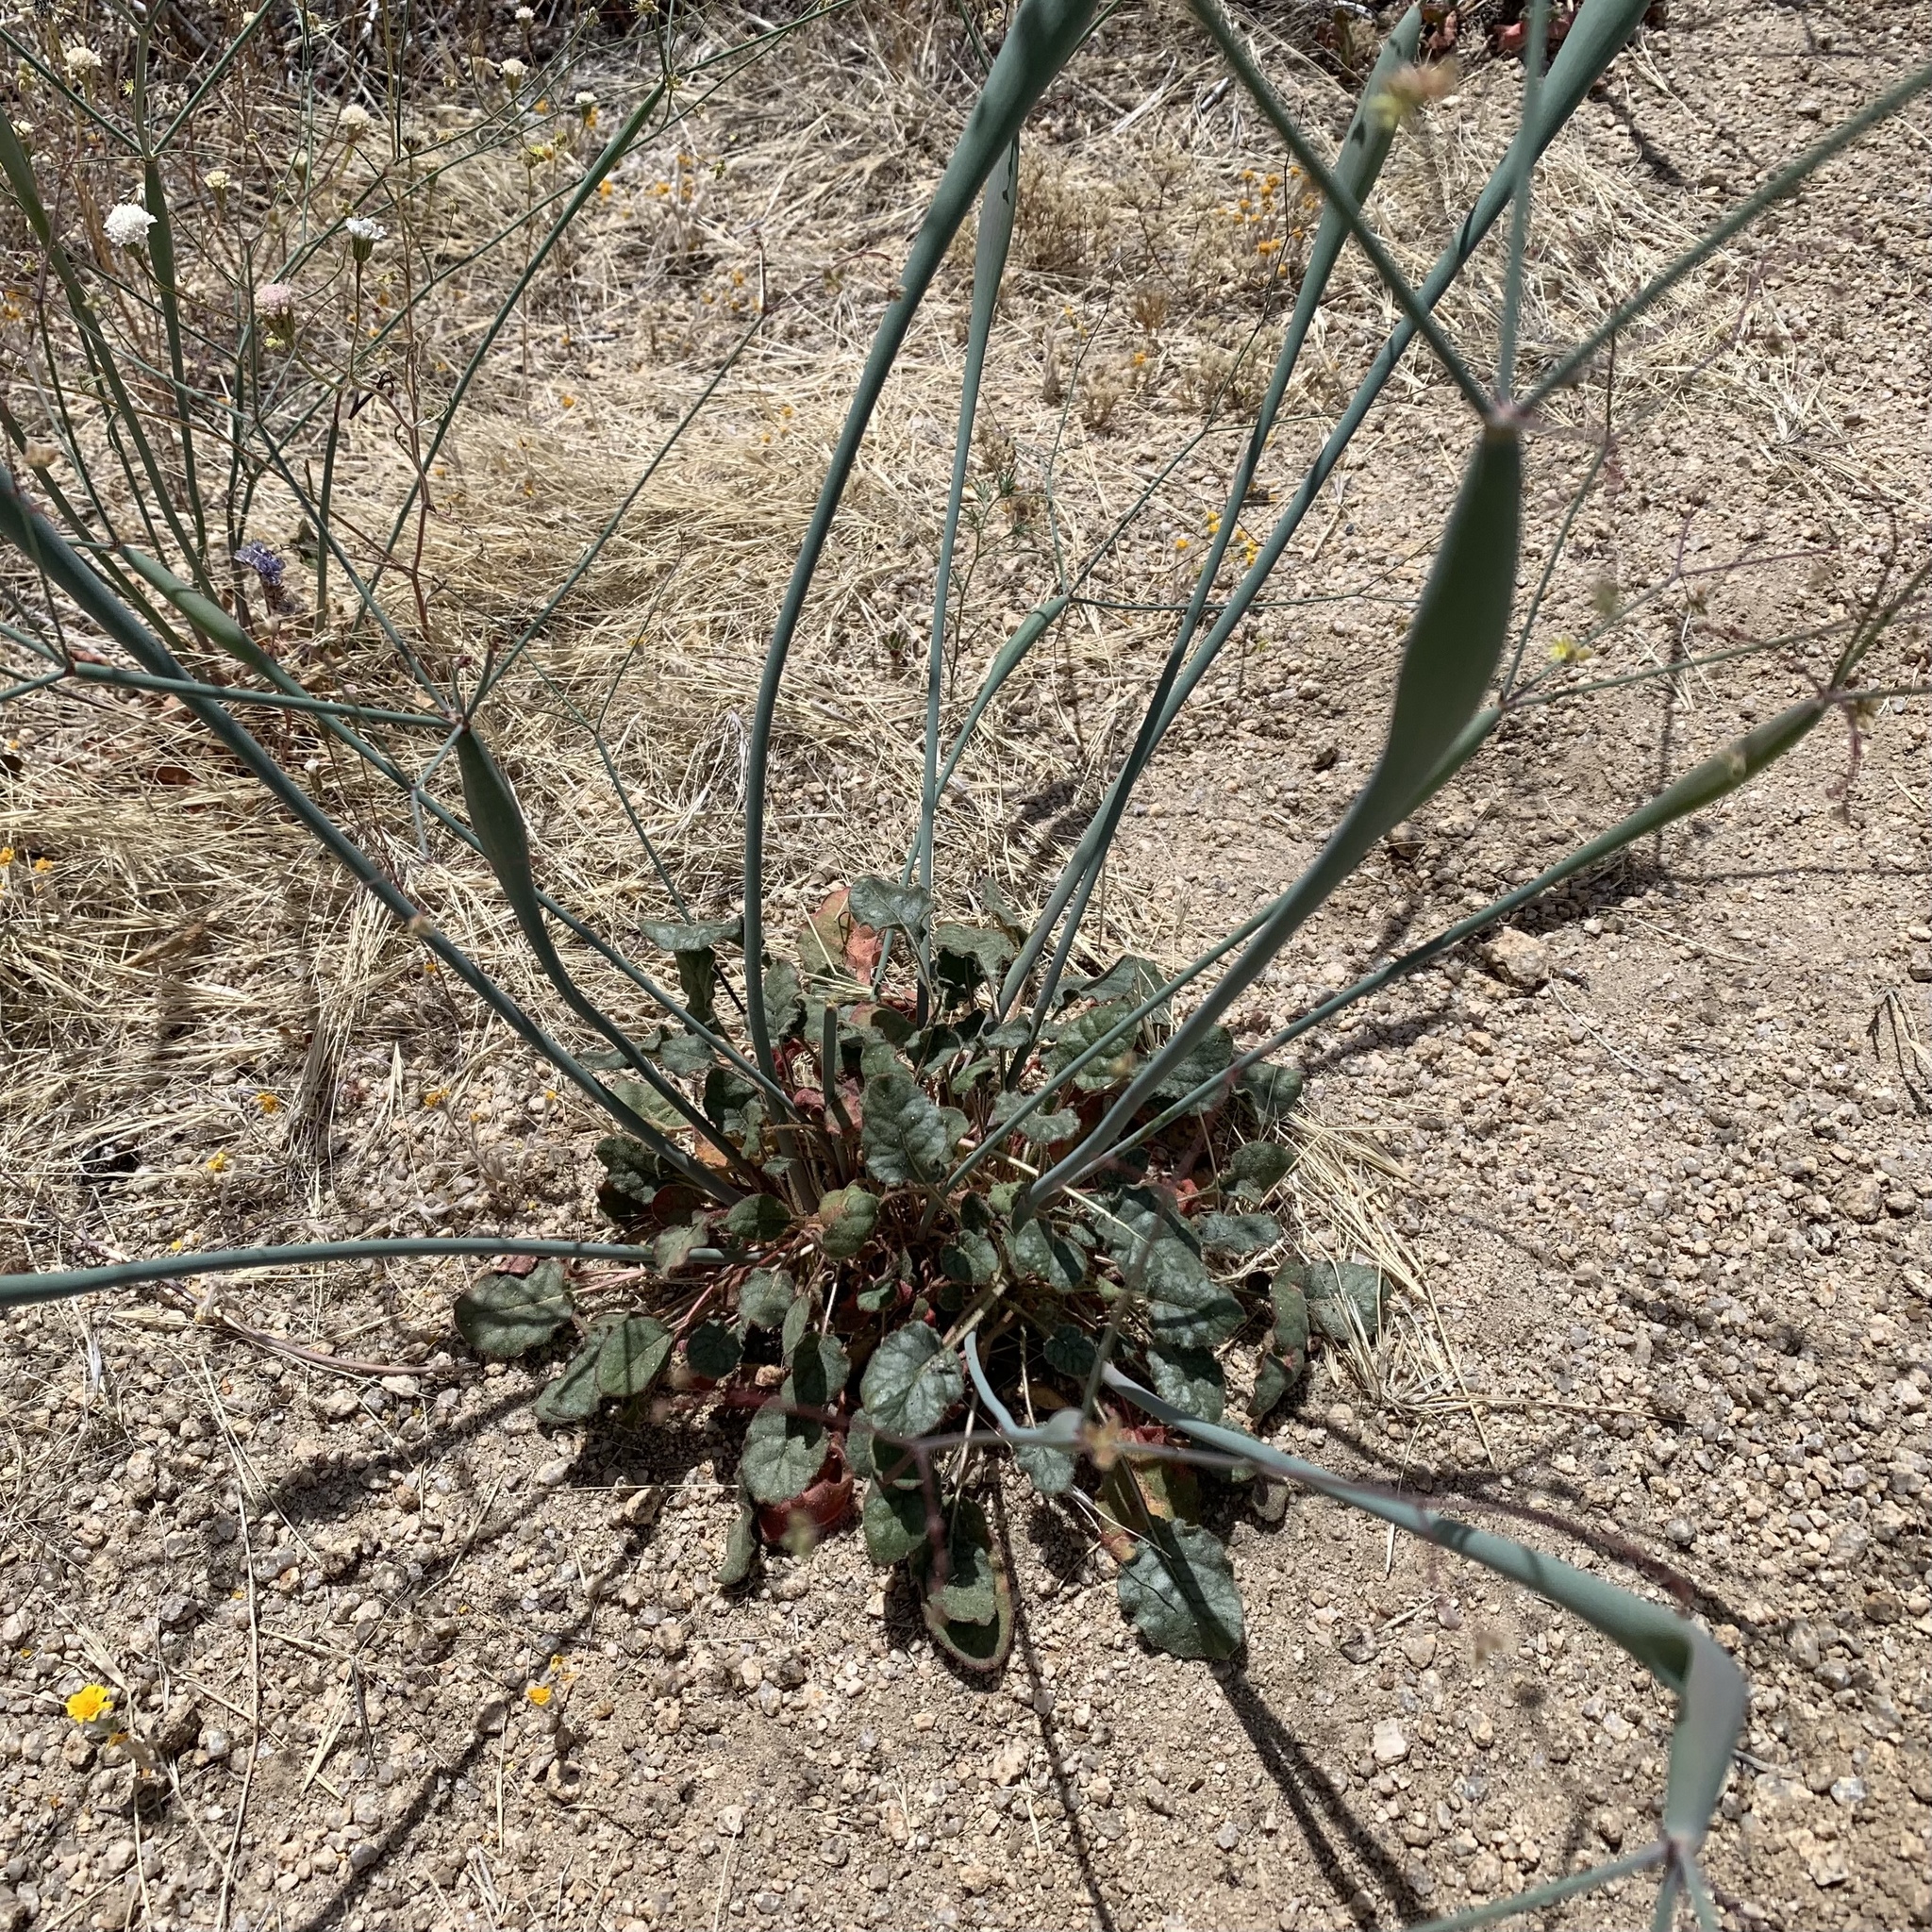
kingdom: Plantae
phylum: Tracheophyta
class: Magnoliopsida
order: Caryophyllales
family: Polygonaceae
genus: Eriogonum
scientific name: Eriogonum inflatum
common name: Desert trumpet
